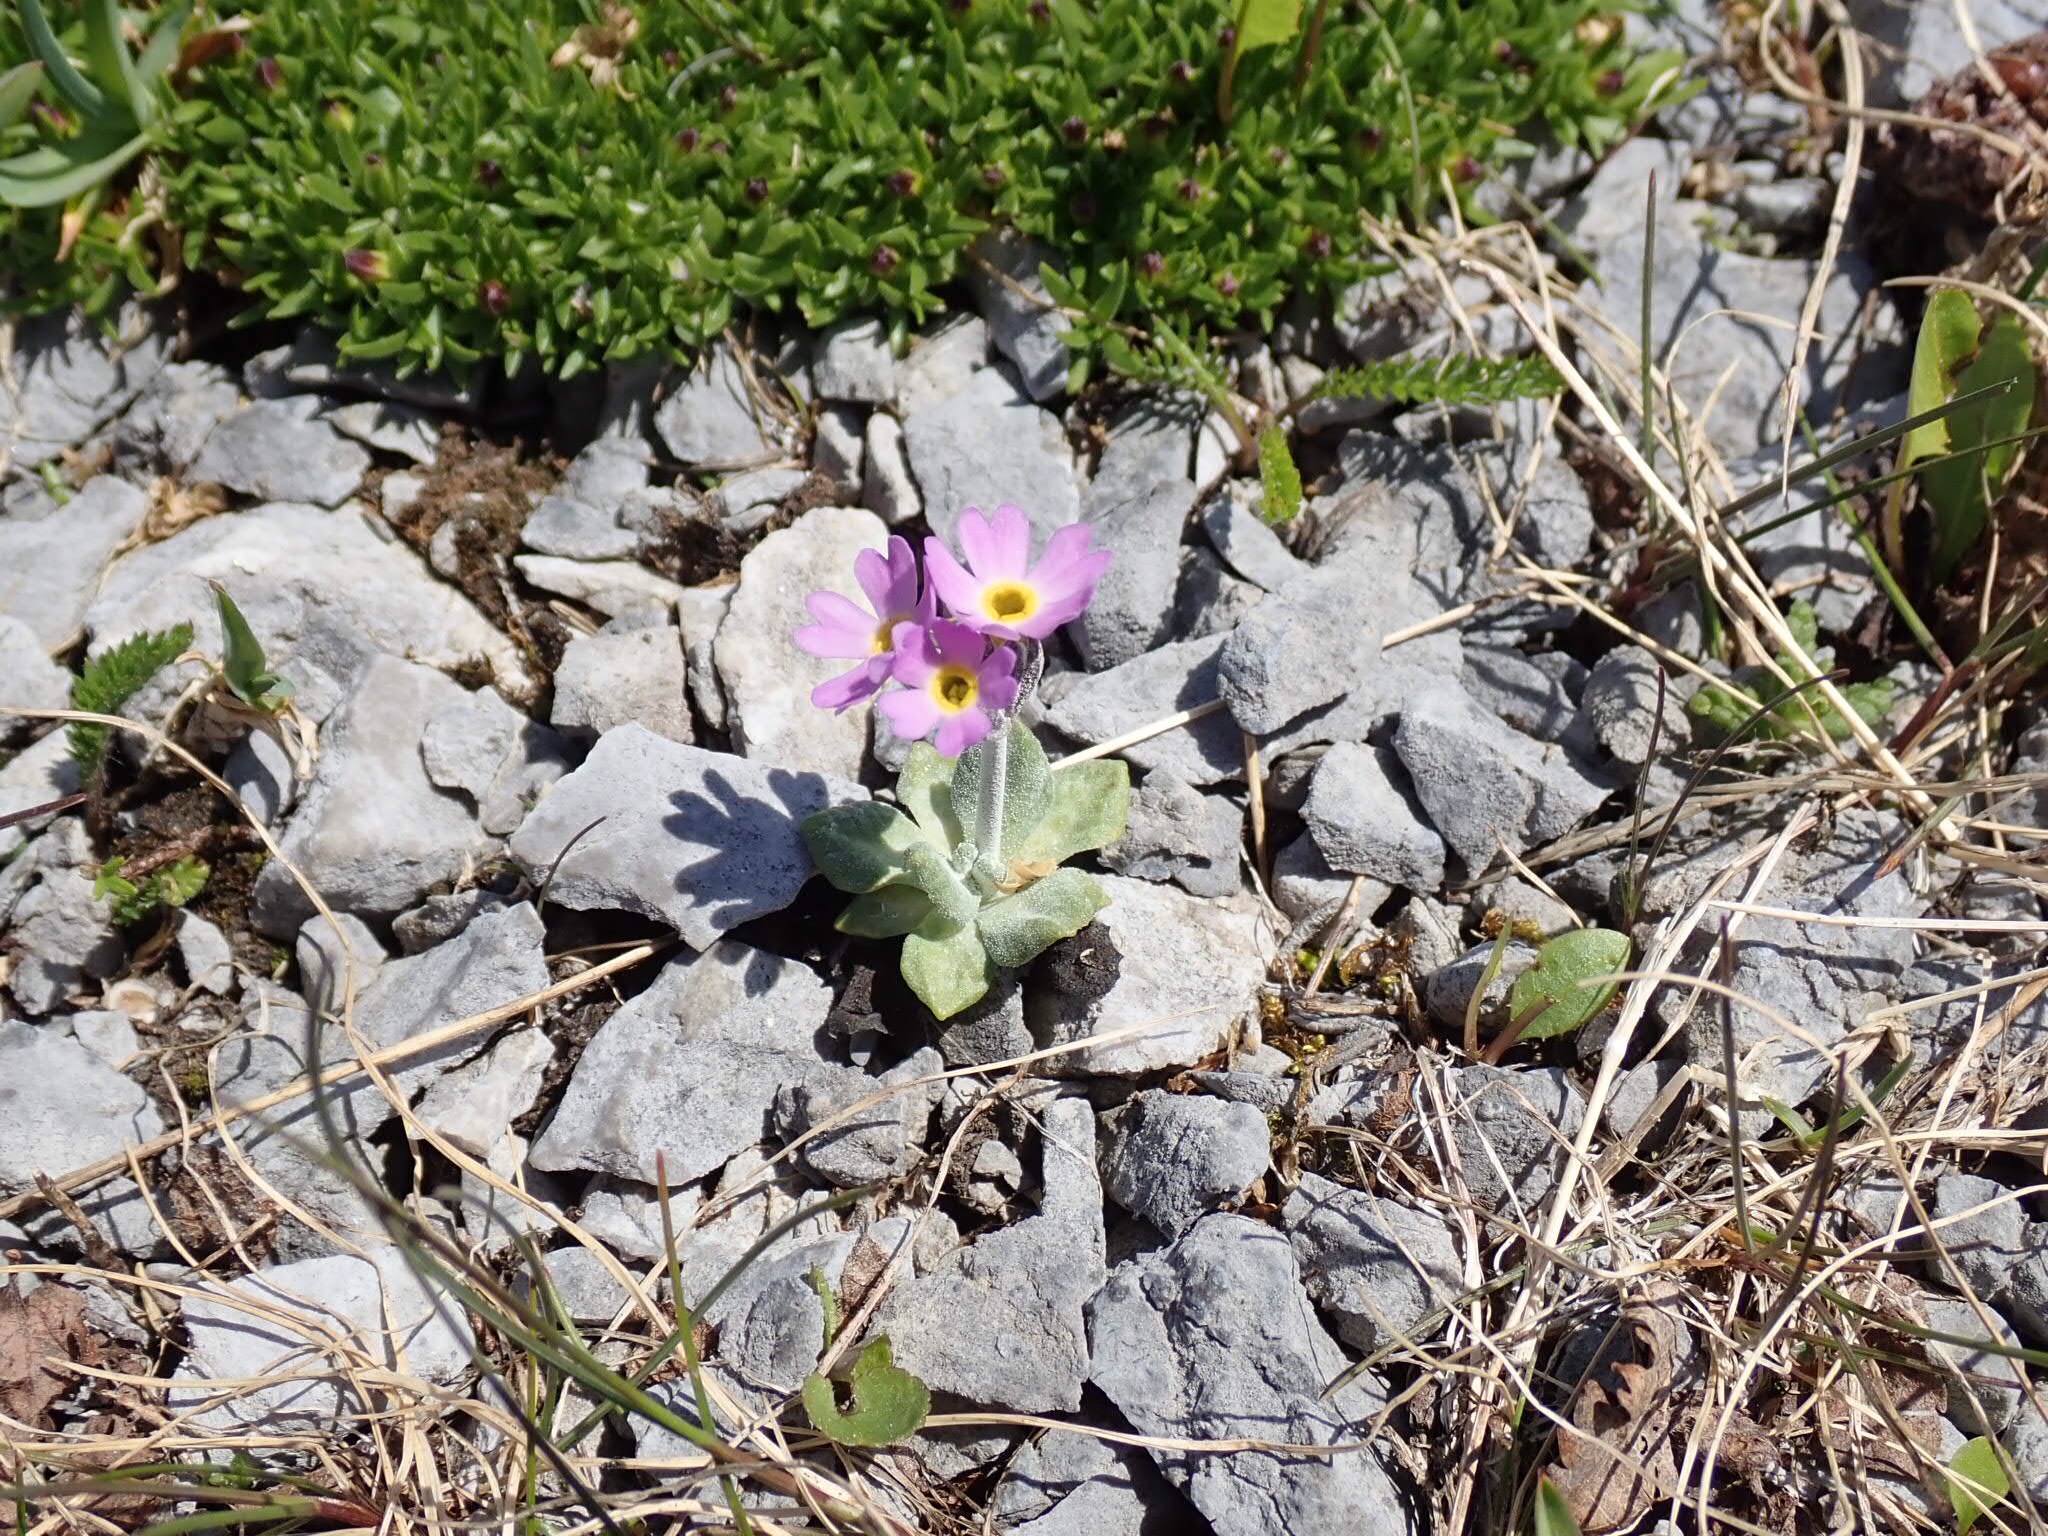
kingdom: Plantae
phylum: Tracheophyta
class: Magnoliopsida
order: Ericales
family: Primulaceae
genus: Primula
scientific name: Primula laurentiana
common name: Bird-eye primrose
